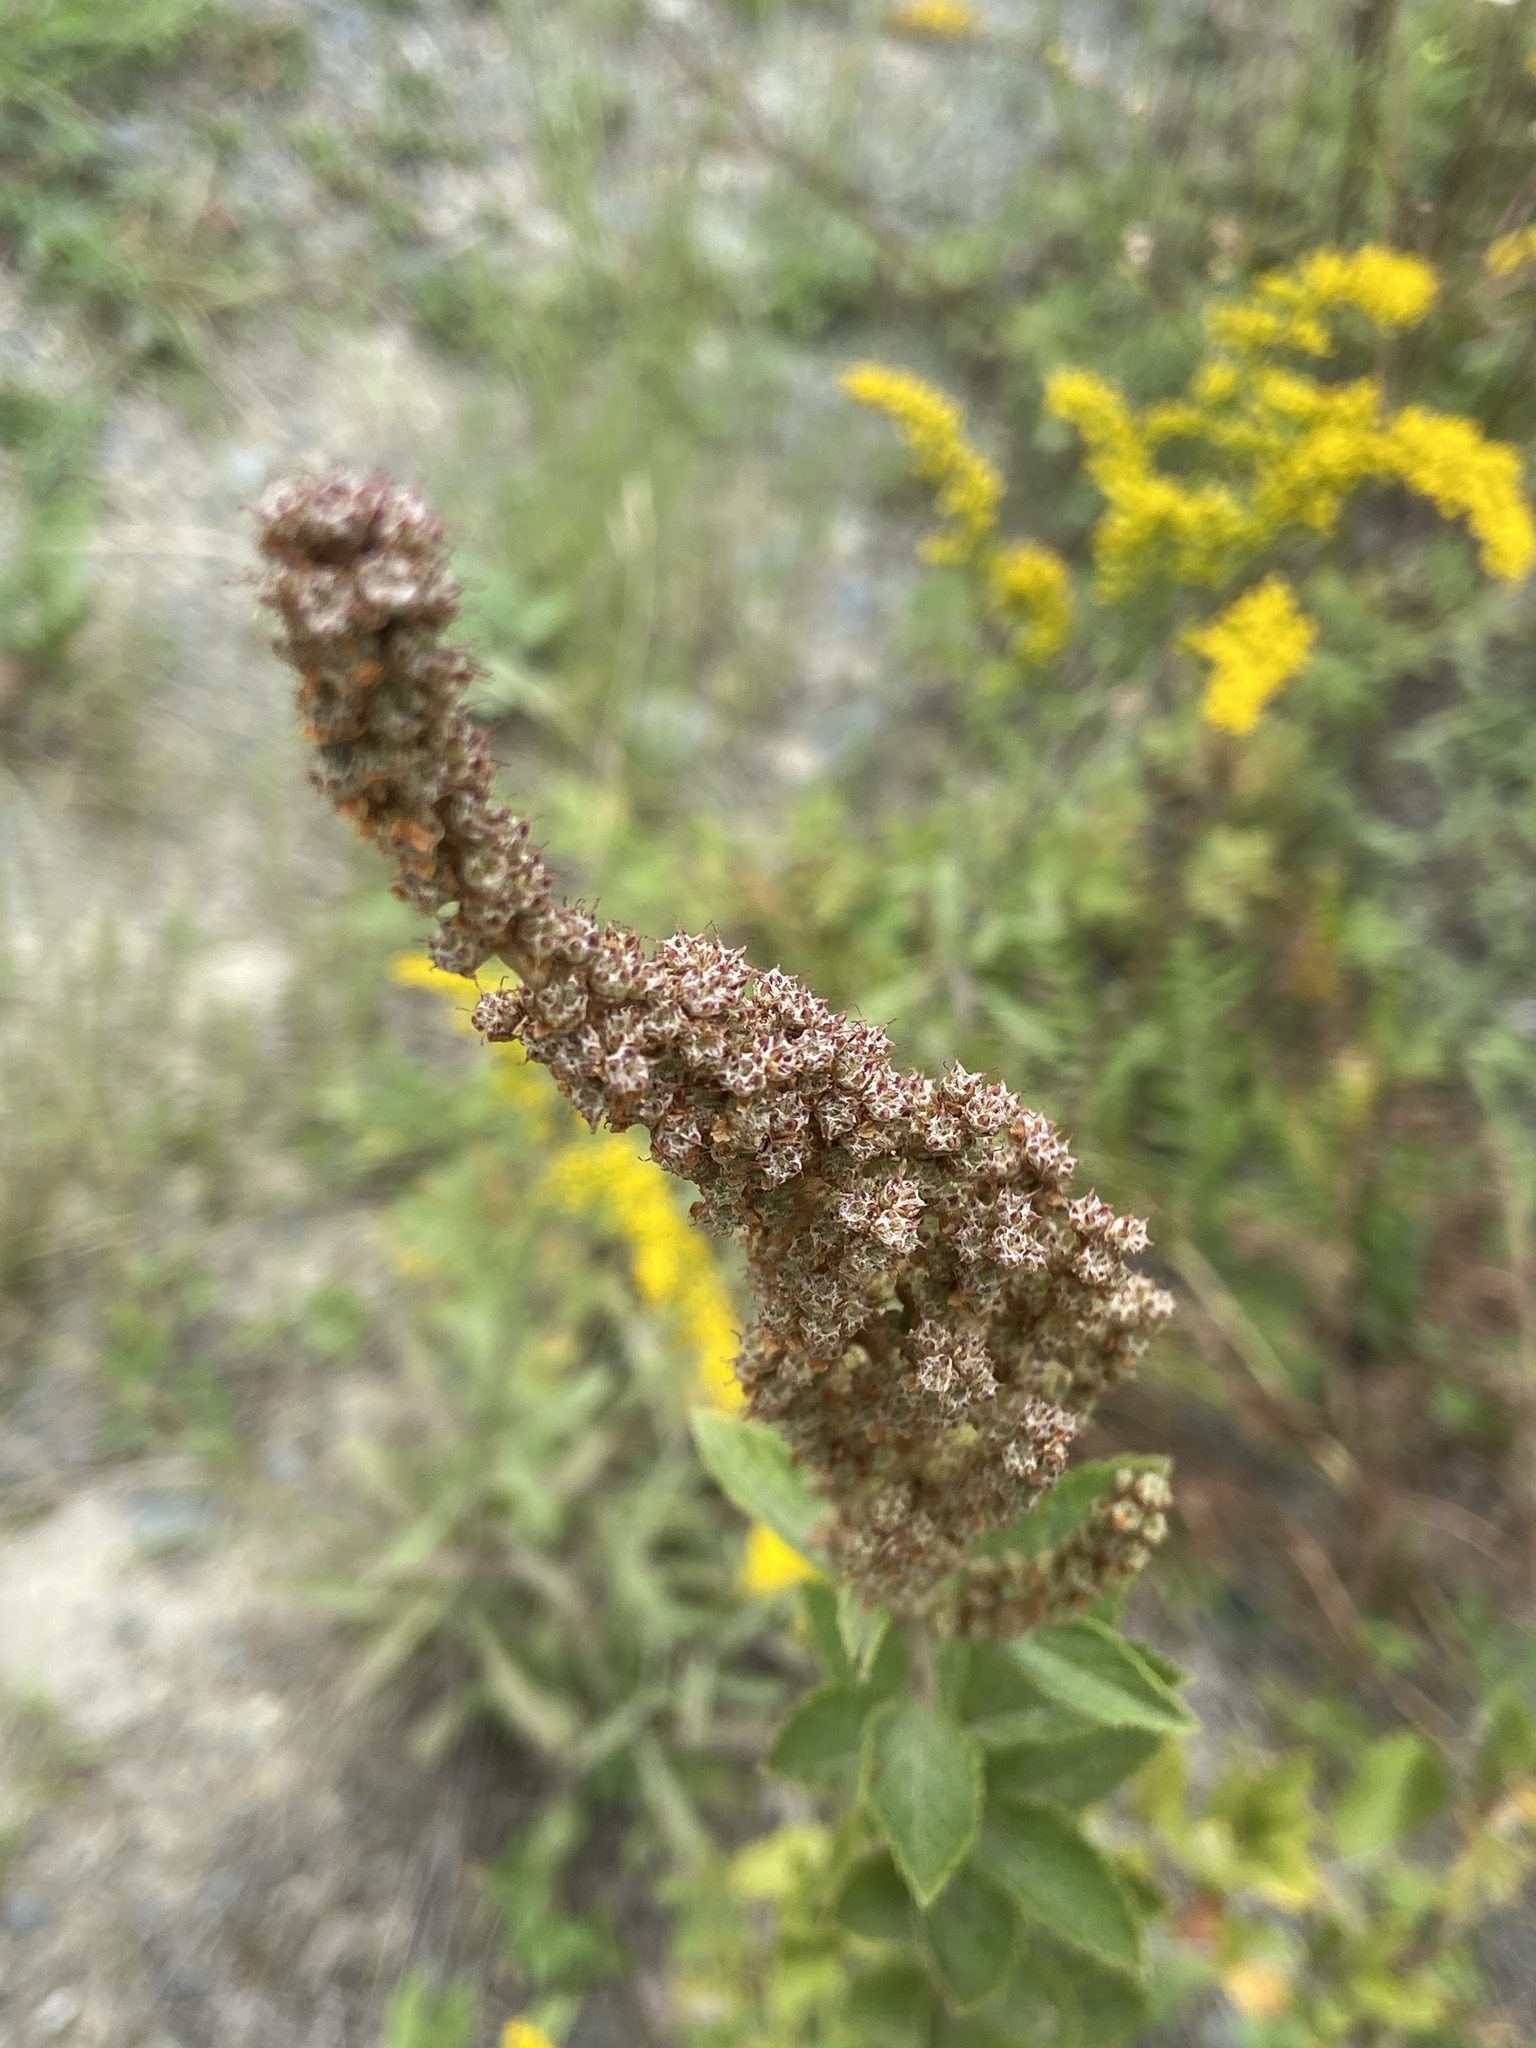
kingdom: Plantae
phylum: Tracheophyta
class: Magnoliopsida
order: Rosales
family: Rosaceae
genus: Spiraea
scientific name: Spiraea tomentosa
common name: Hardhack
